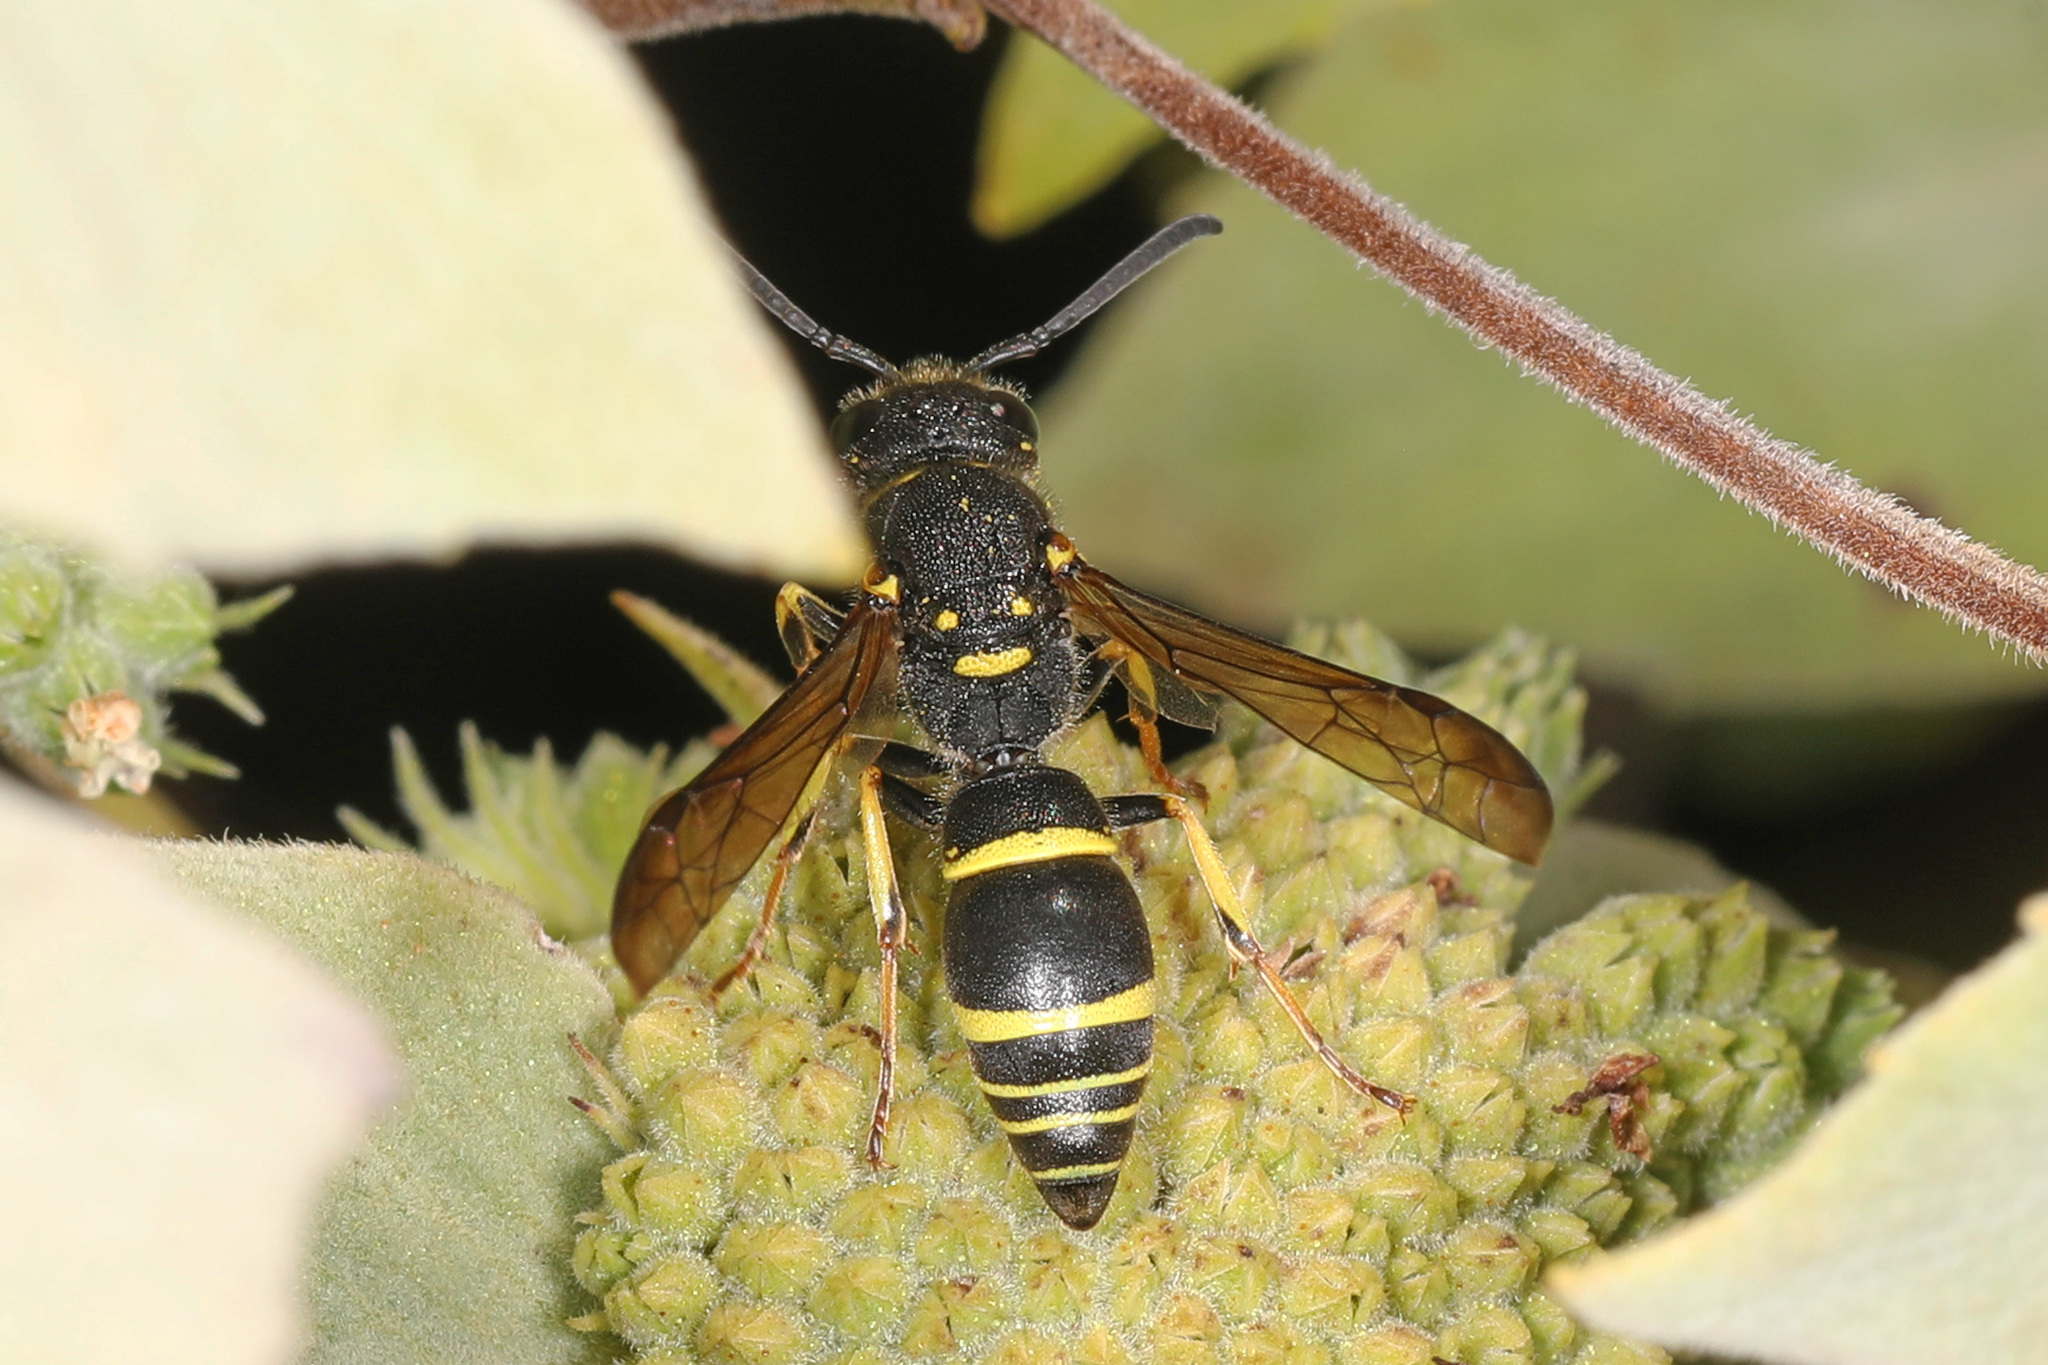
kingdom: Animalia
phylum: Arthropoda
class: Insecta
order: Hymenoptera
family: Vespidae
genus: Ancistrocerus
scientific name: Ancistrocerus adiabatus
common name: Bramble mason wasp
